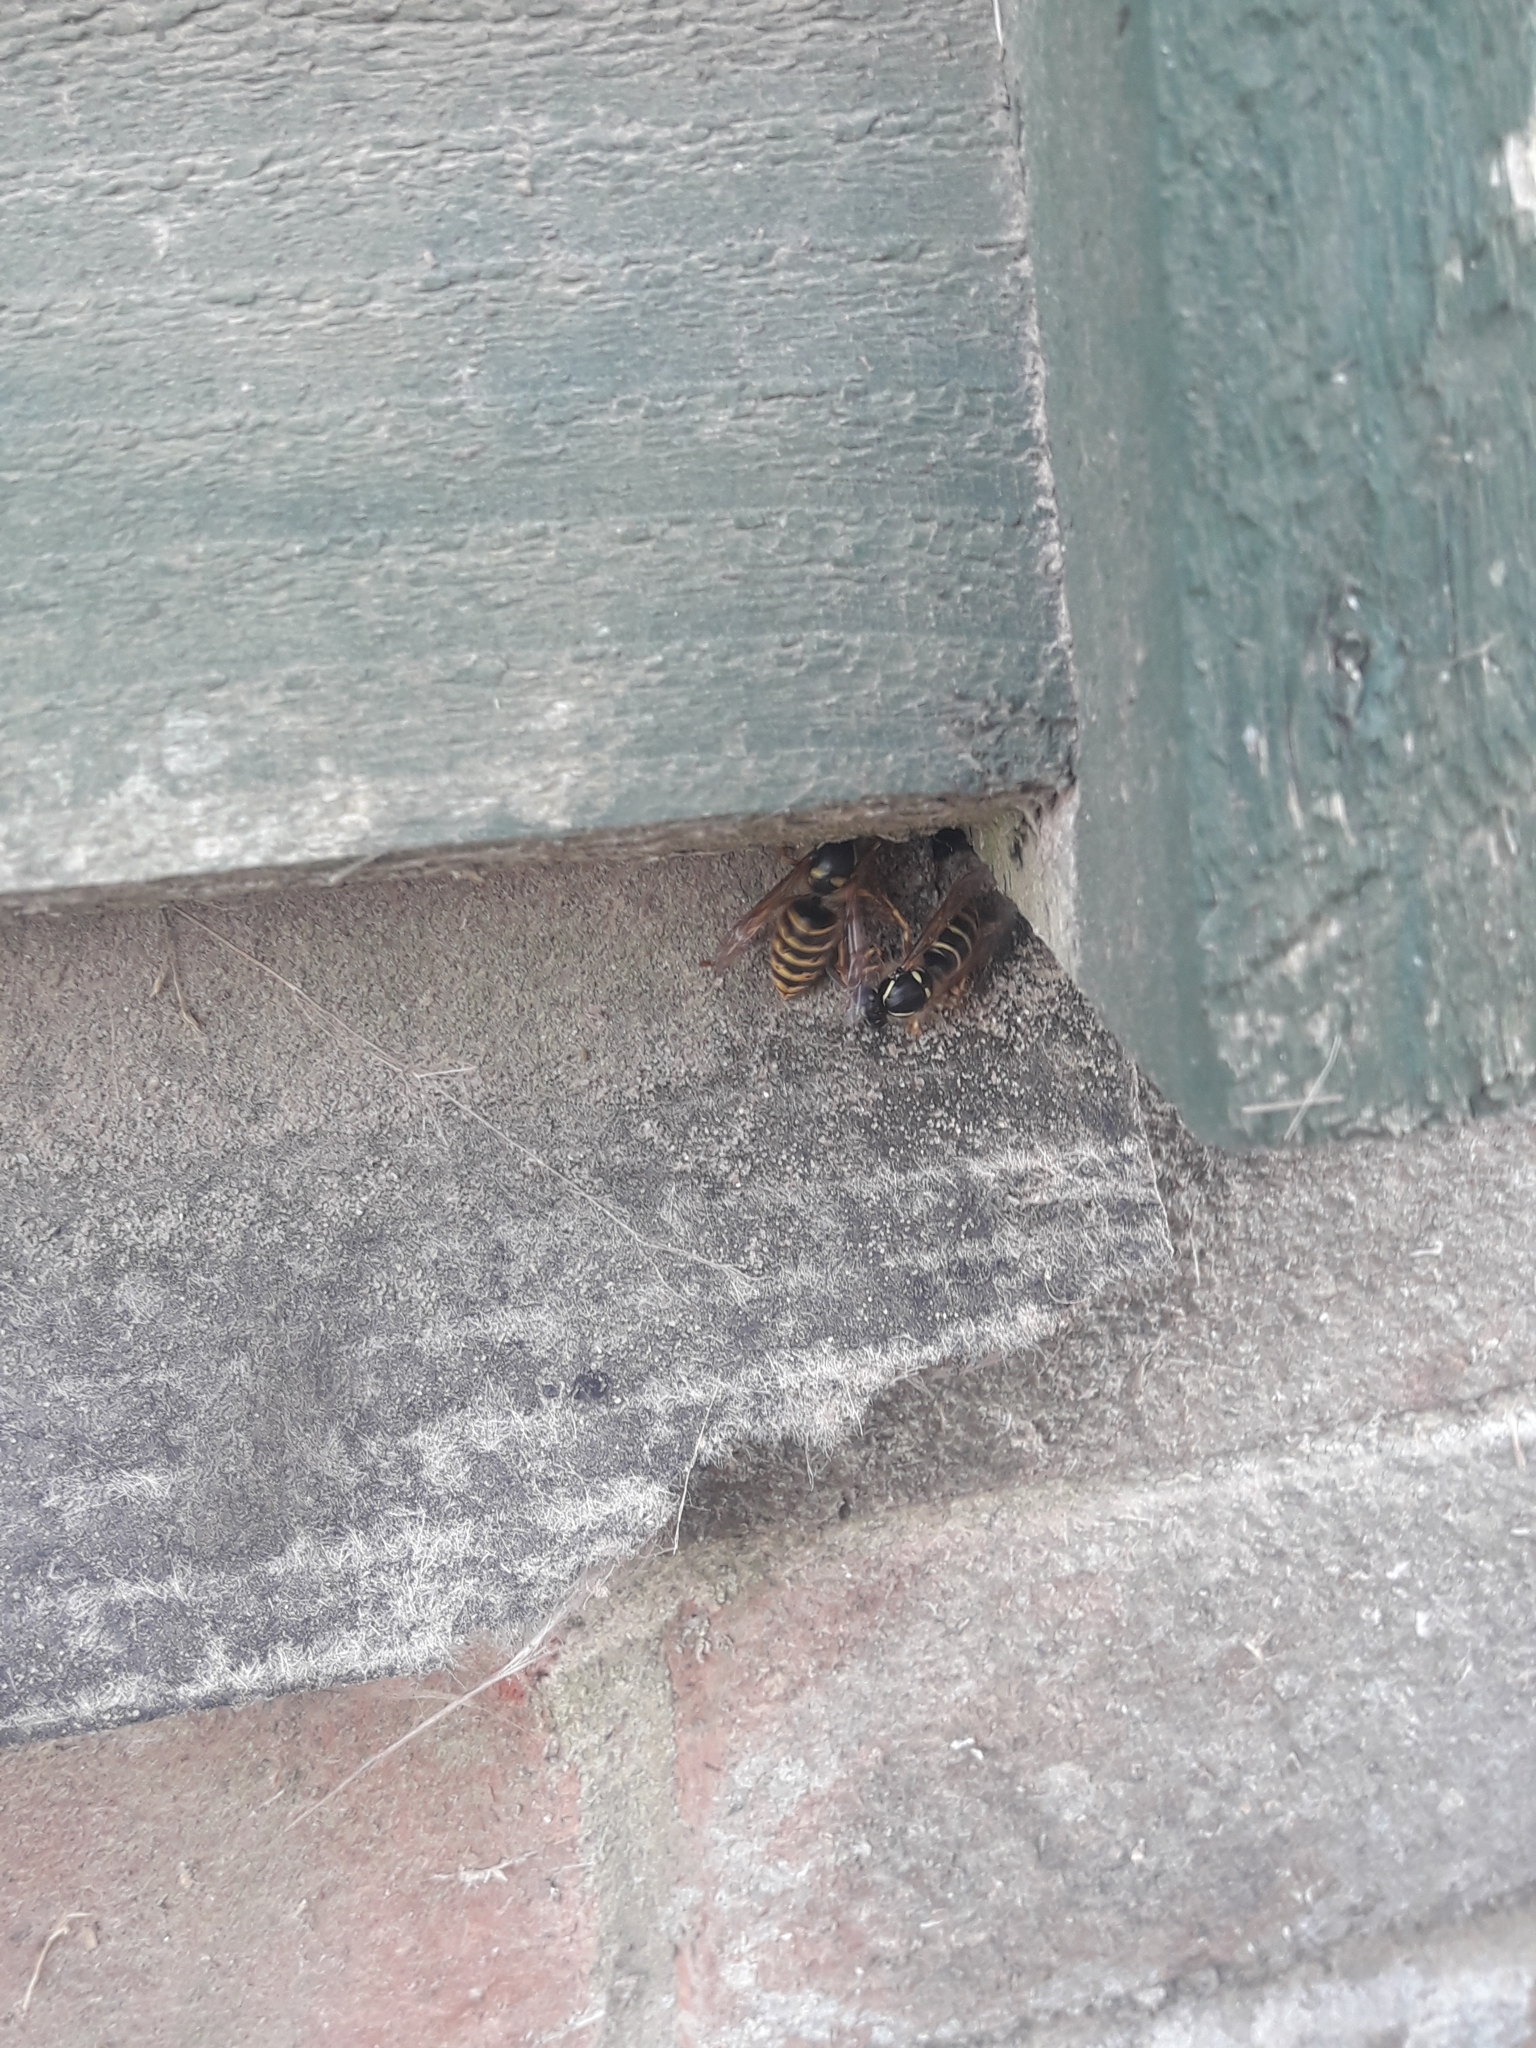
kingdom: Animalia
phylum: Arthropoda
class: Insecta
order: Hymenoptera
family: Vespidae
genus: Dolichovespula
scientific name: Dolichovespula saxonica
